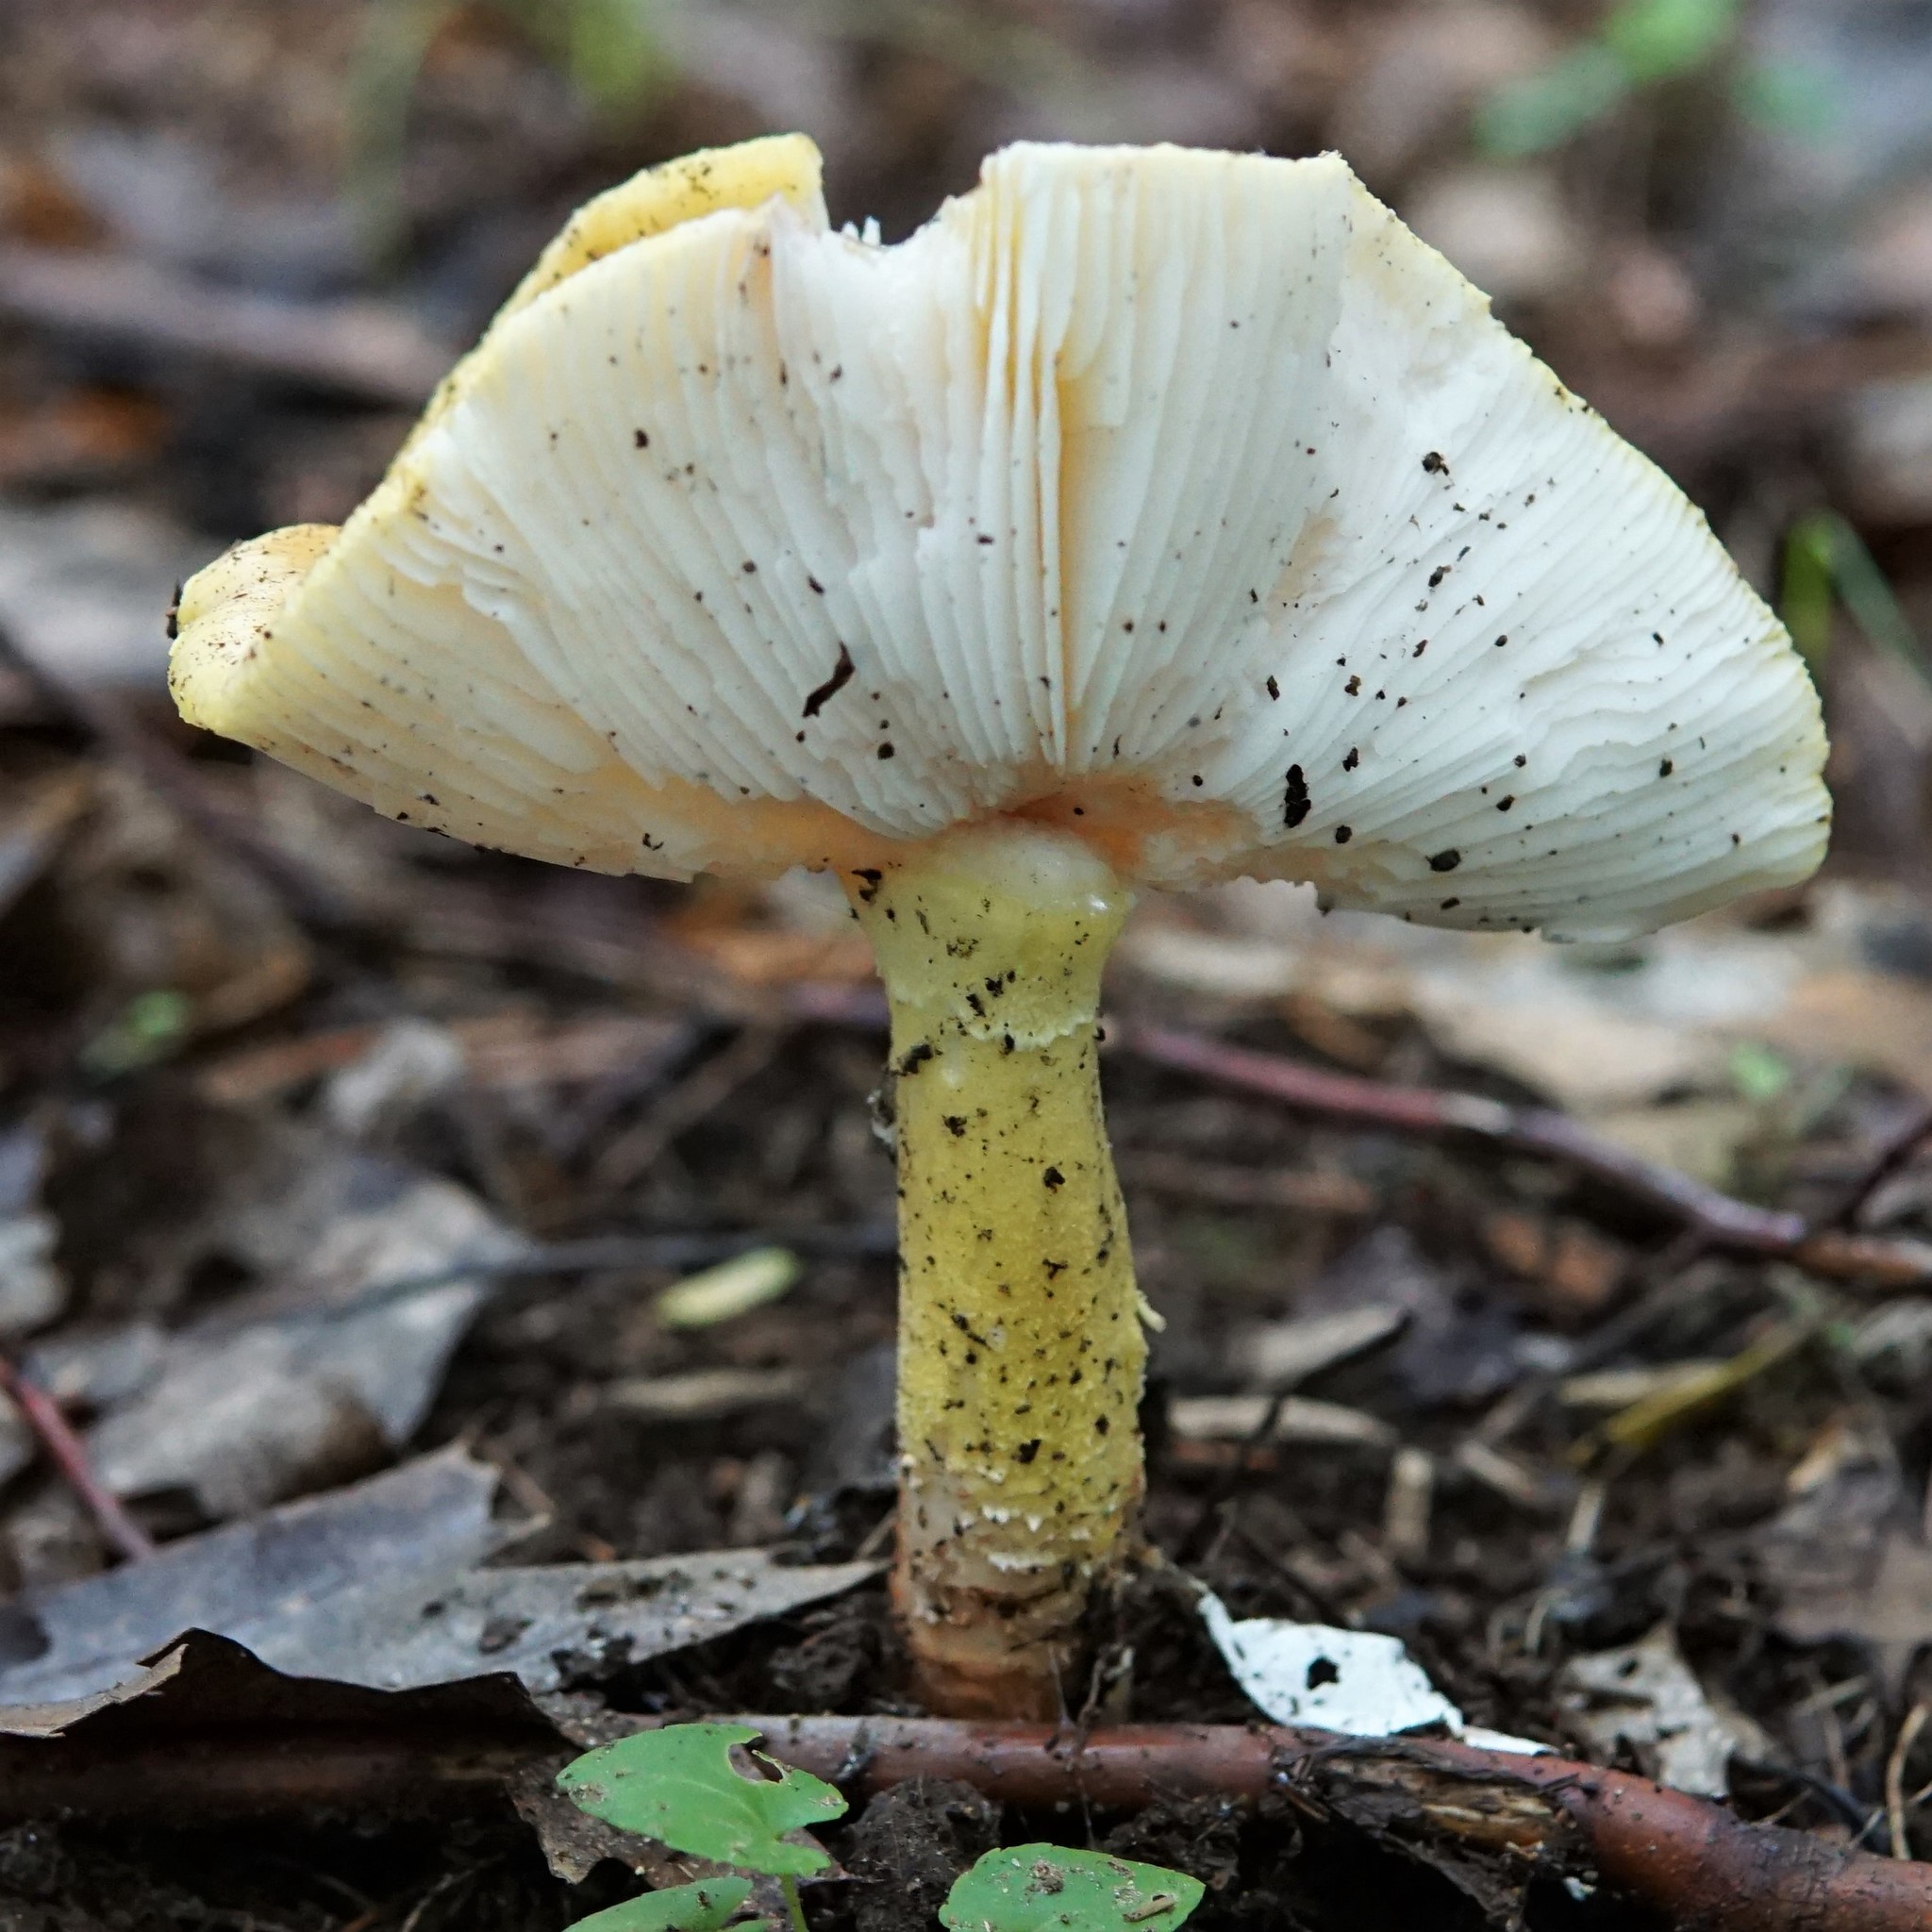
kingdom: Fungi
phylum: Basidiomycota
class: Agaricomycetes
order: Agaricales
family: Amanitaceae
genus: Amanita
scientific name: Amanita flavorubens
